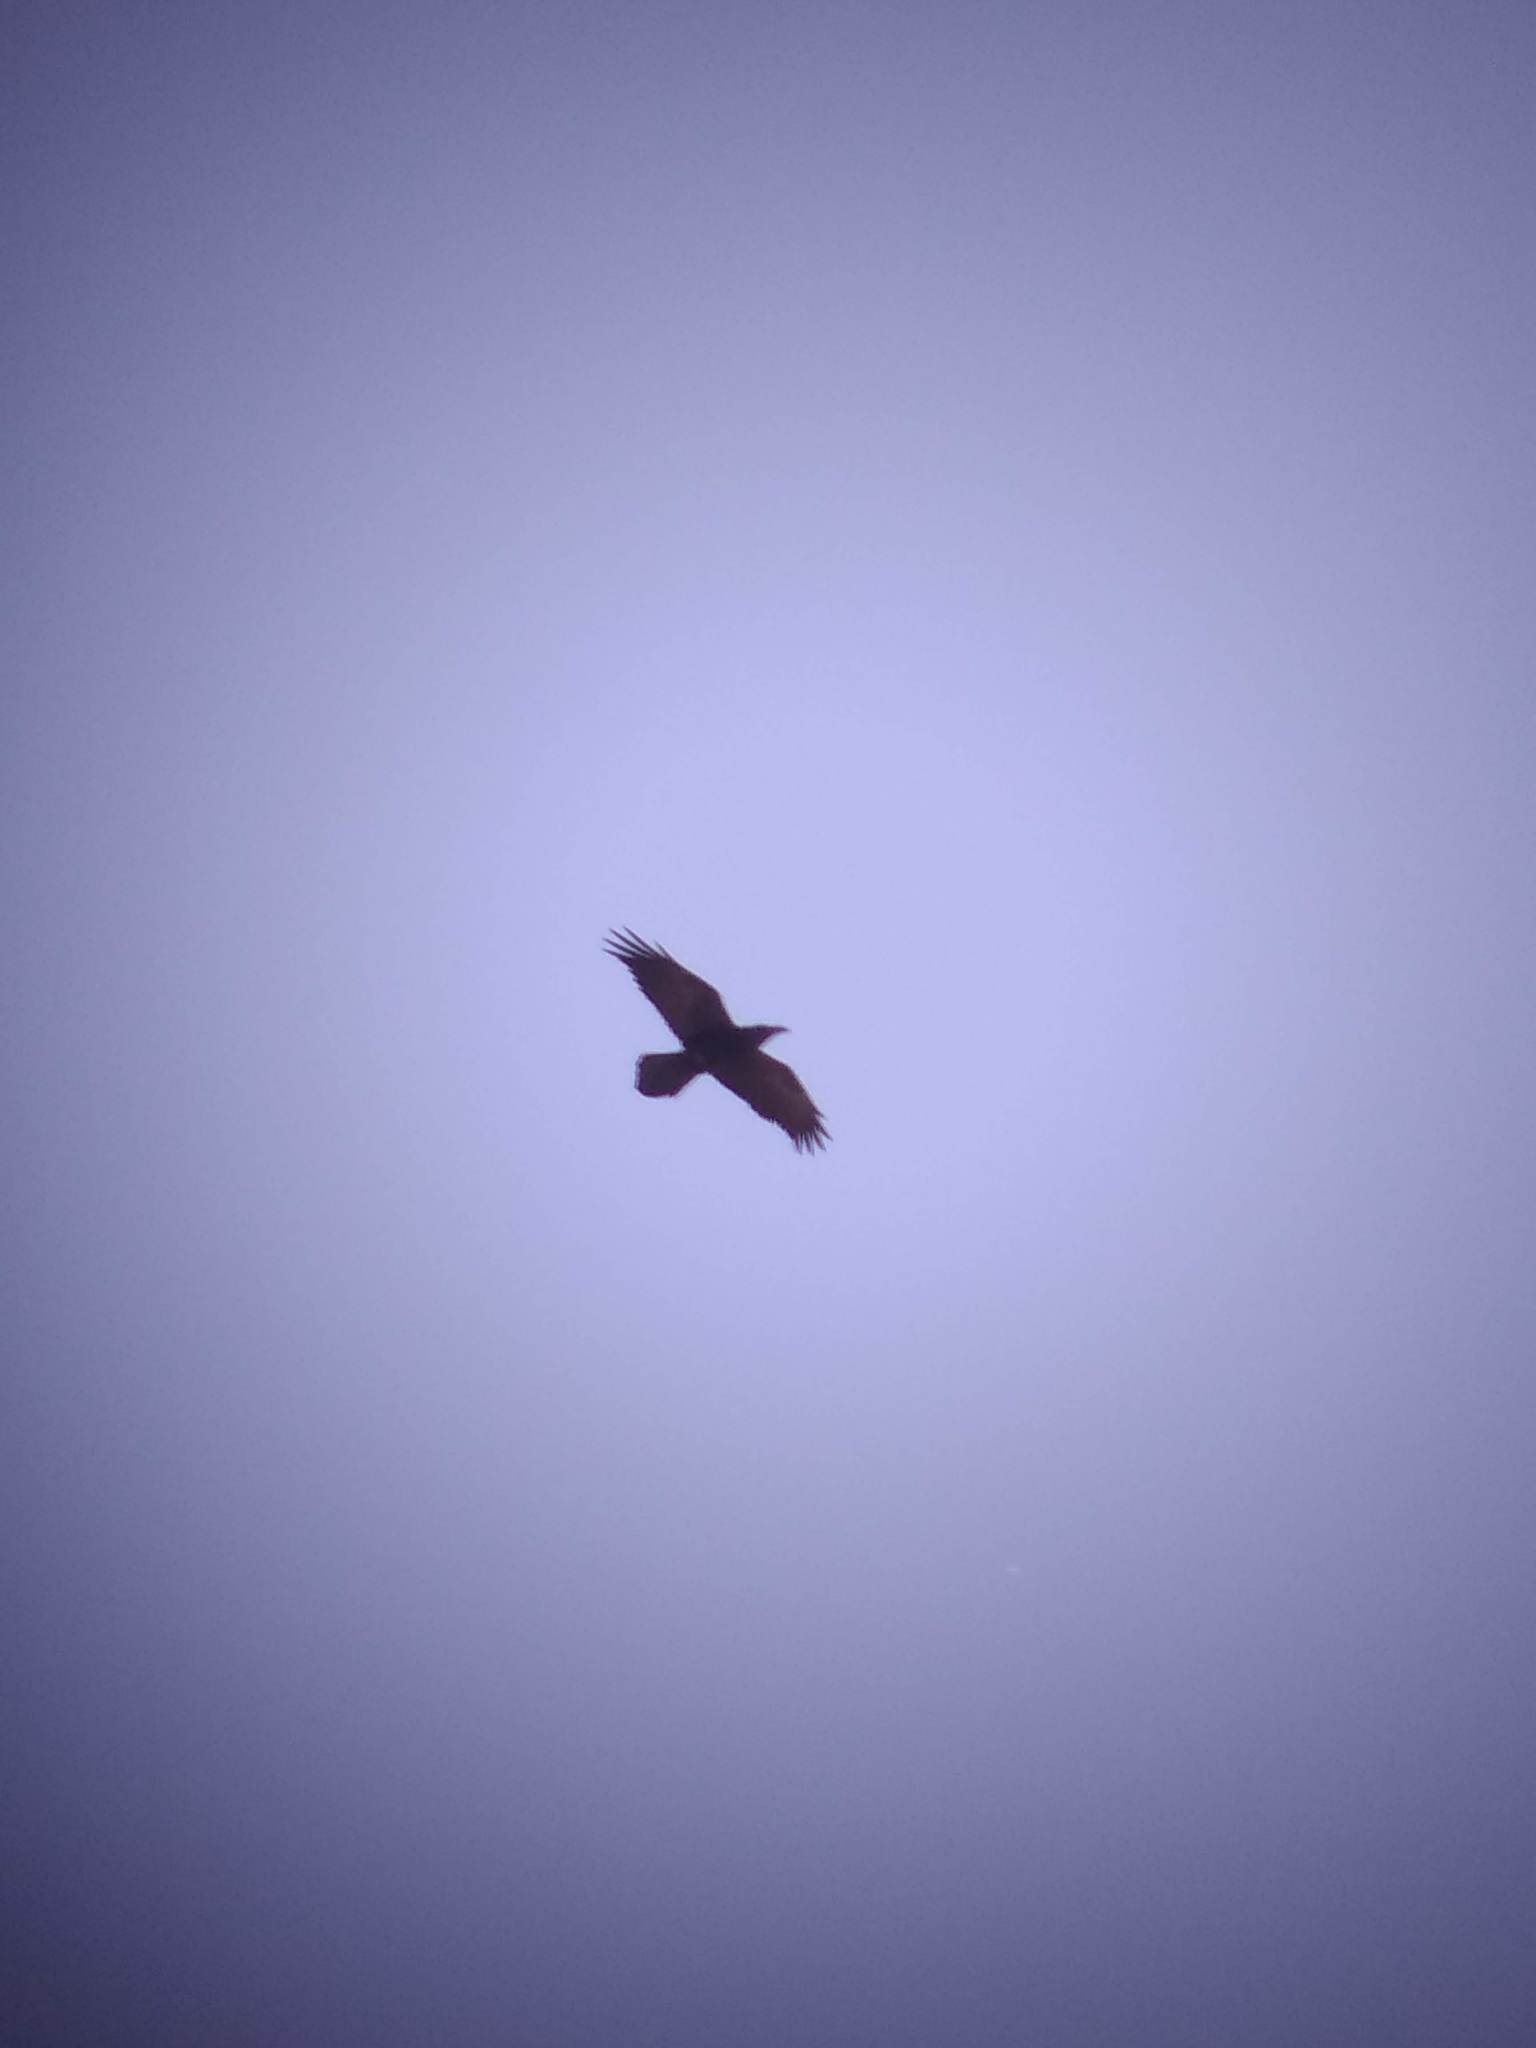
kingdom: Animalia
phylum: Chordata
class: Aves
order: Passeriformes
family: Corvidae
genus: Corvus
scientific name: Corvus corax
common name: Common raven
